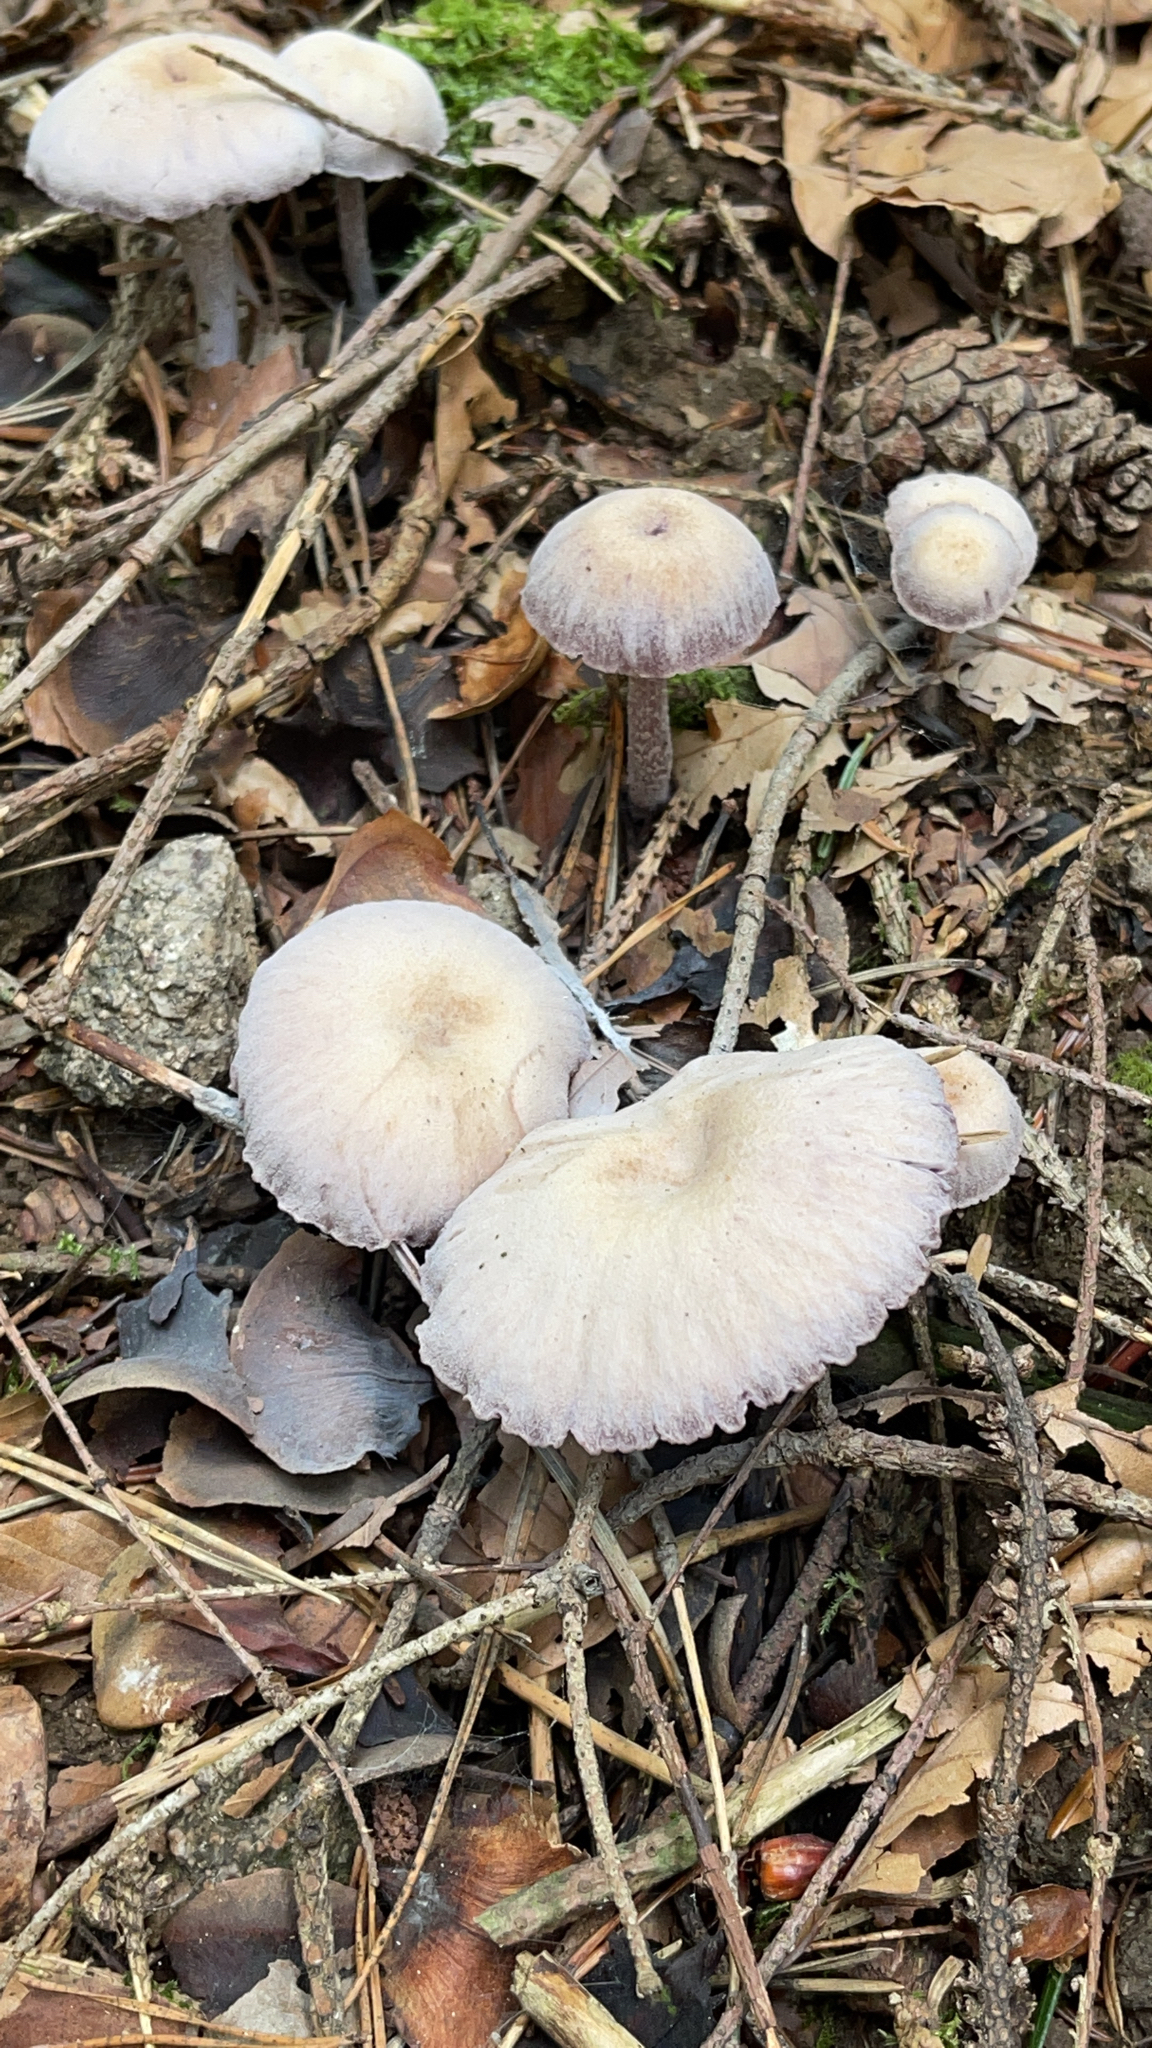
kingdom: Fungi
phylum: Basidiomycota
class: Agaricomycetes
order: Agaricales
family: Hydnangiaceae
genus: Laccaria
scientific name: Laccaria amethystina
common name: Amethyst deceiver
